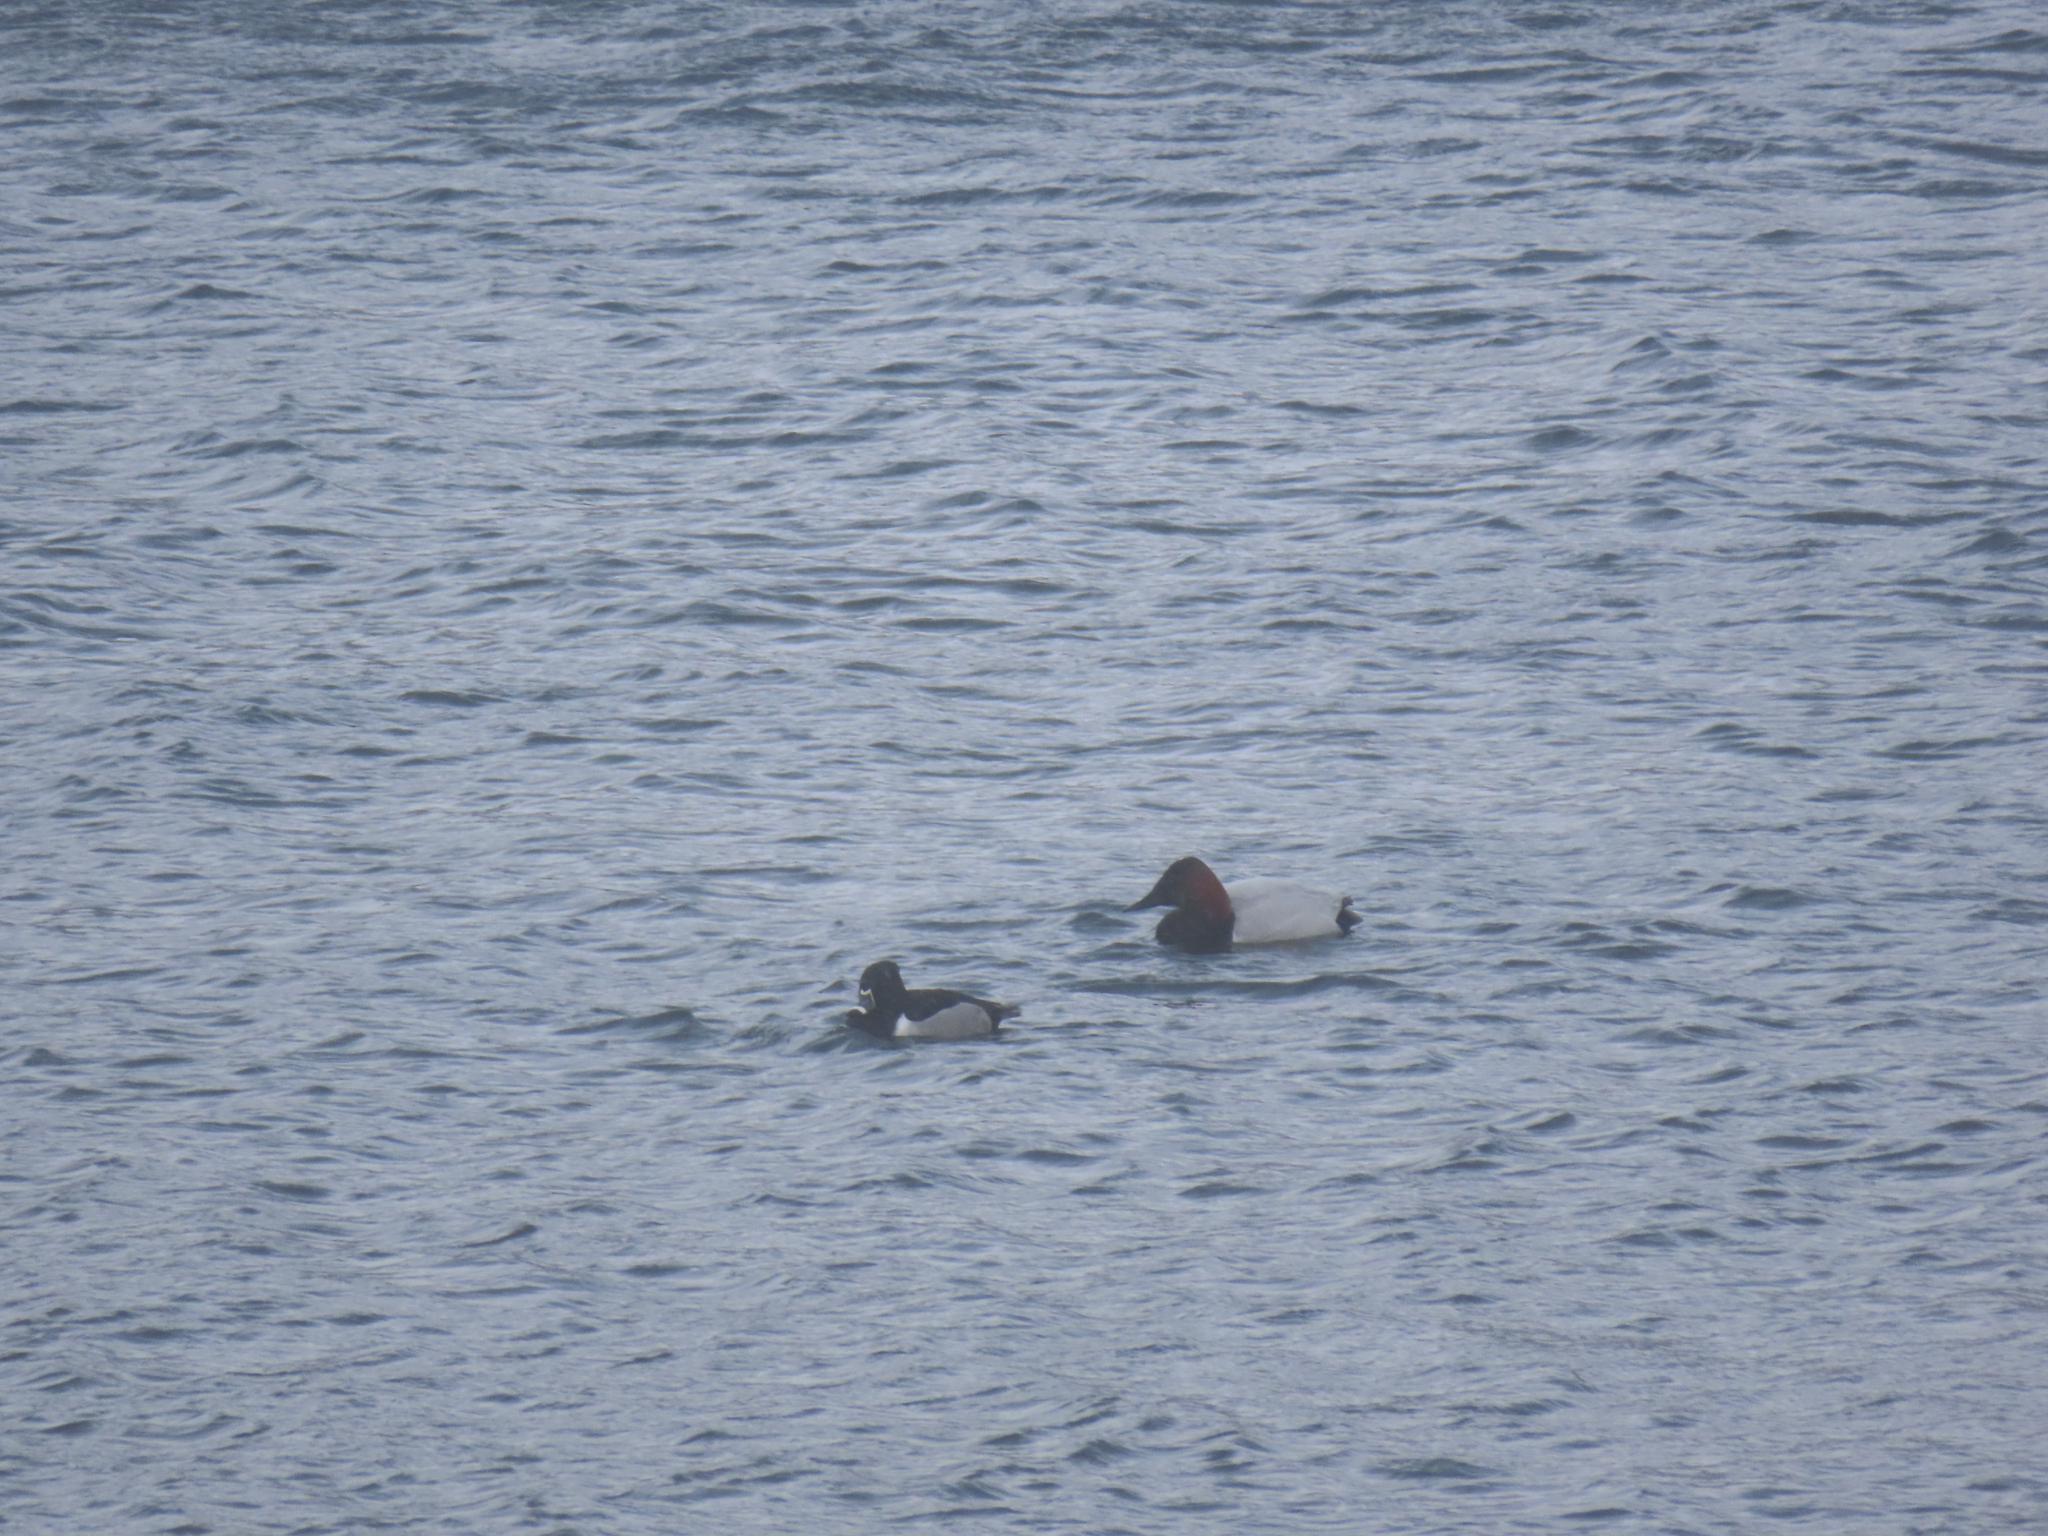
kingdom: Animalia
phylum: Chordata
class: Aves
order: Anseriformes
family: Anatidae
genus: Aythya
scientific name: Aythya valisineria
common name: Canvasback
